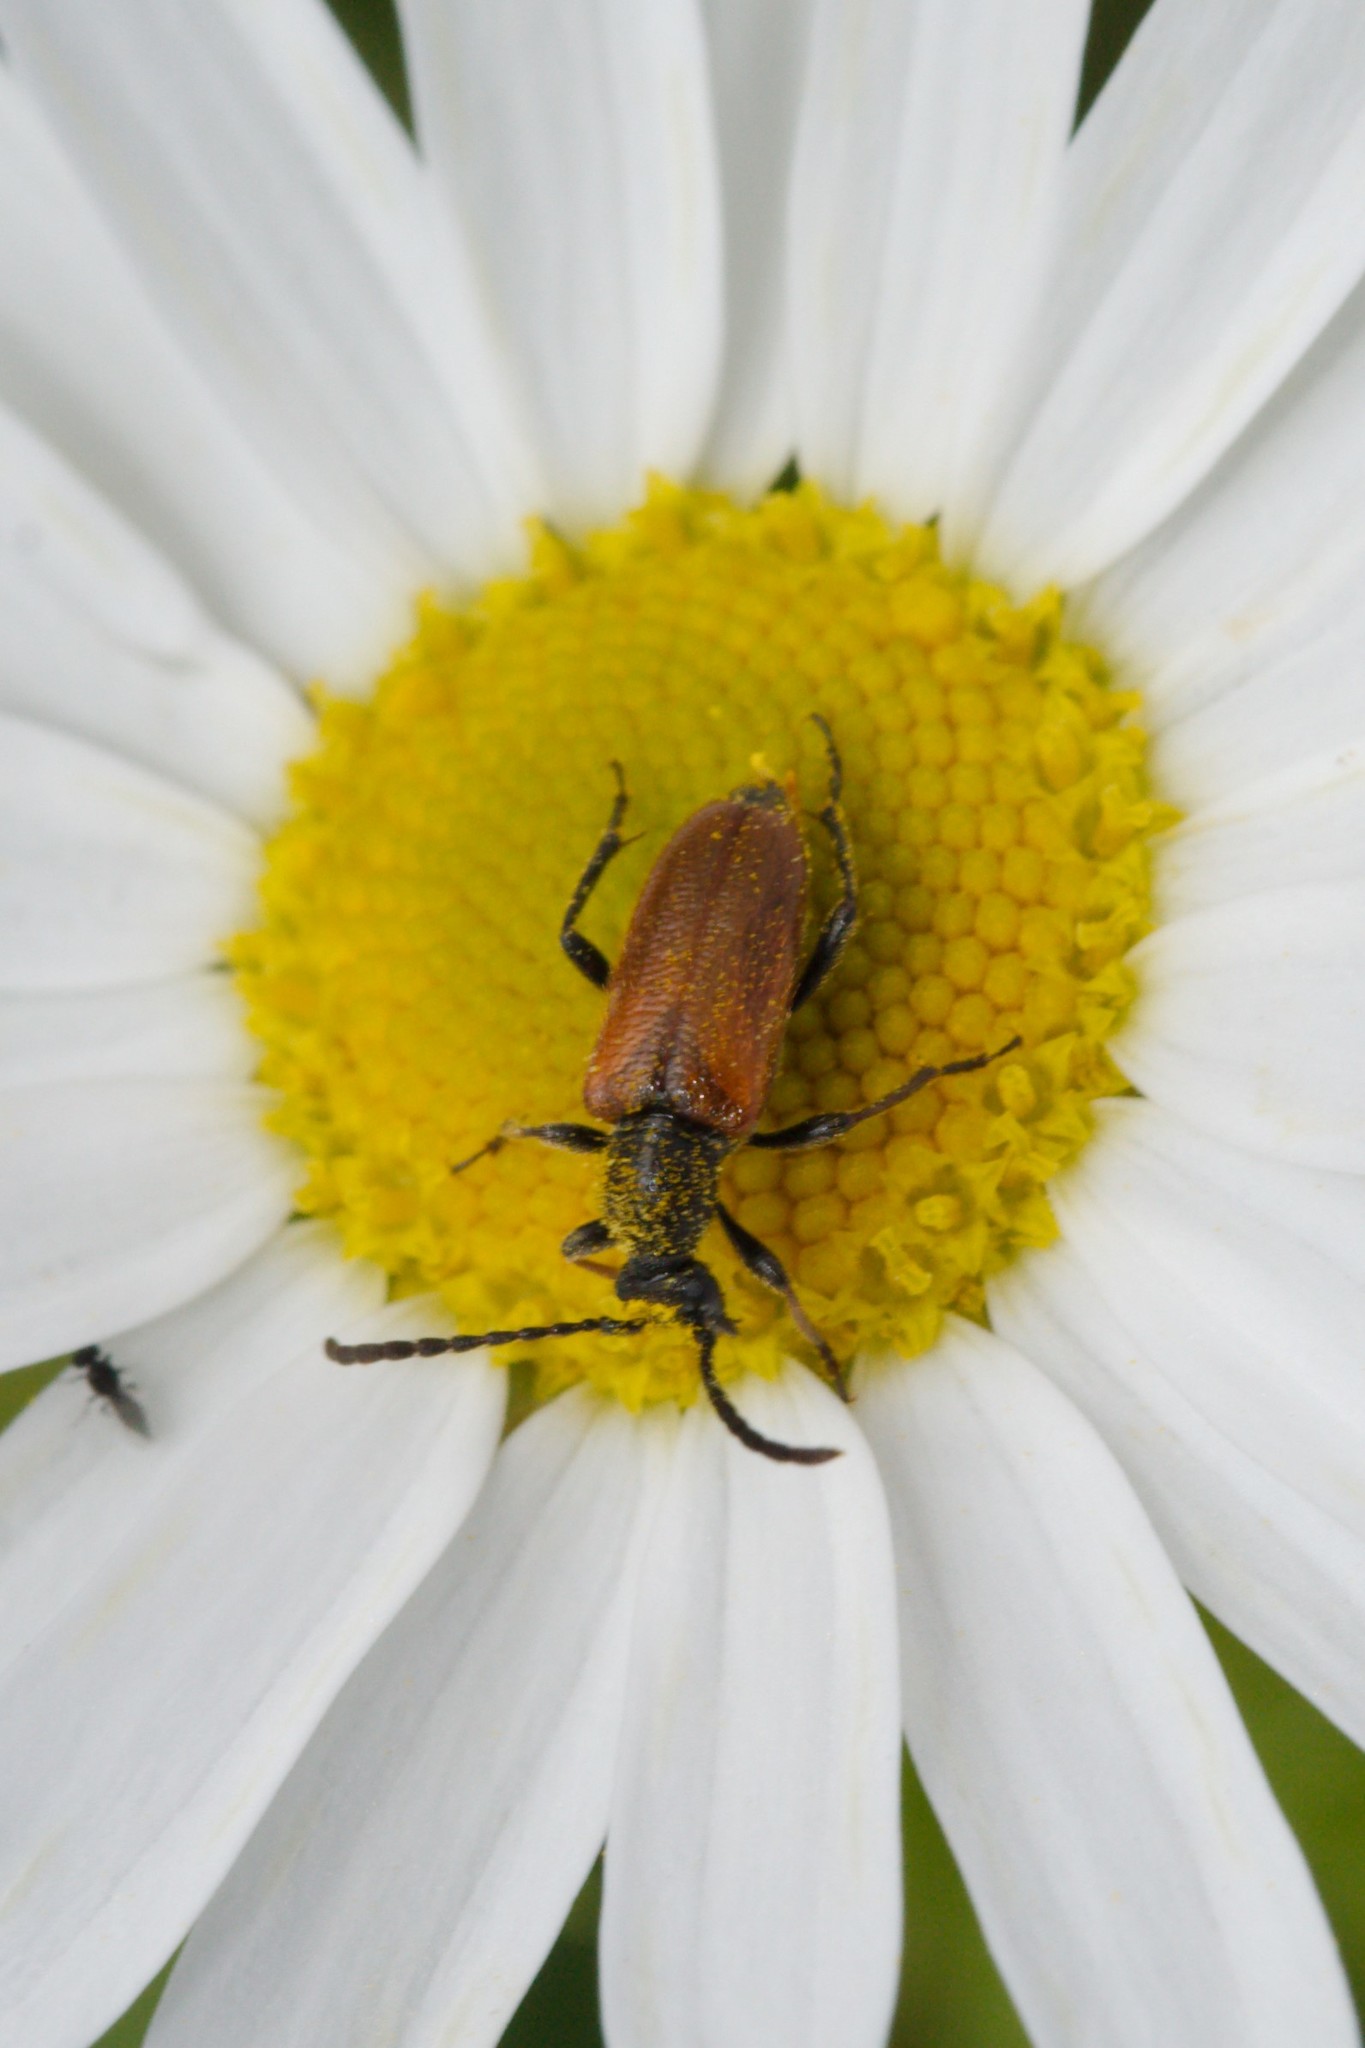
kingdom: Animalia
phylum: Arthropoda
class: Insecta
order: Coleoptera
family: Cerambycidae
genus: Pseudovadonia
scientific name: Pseudovadonia livida
